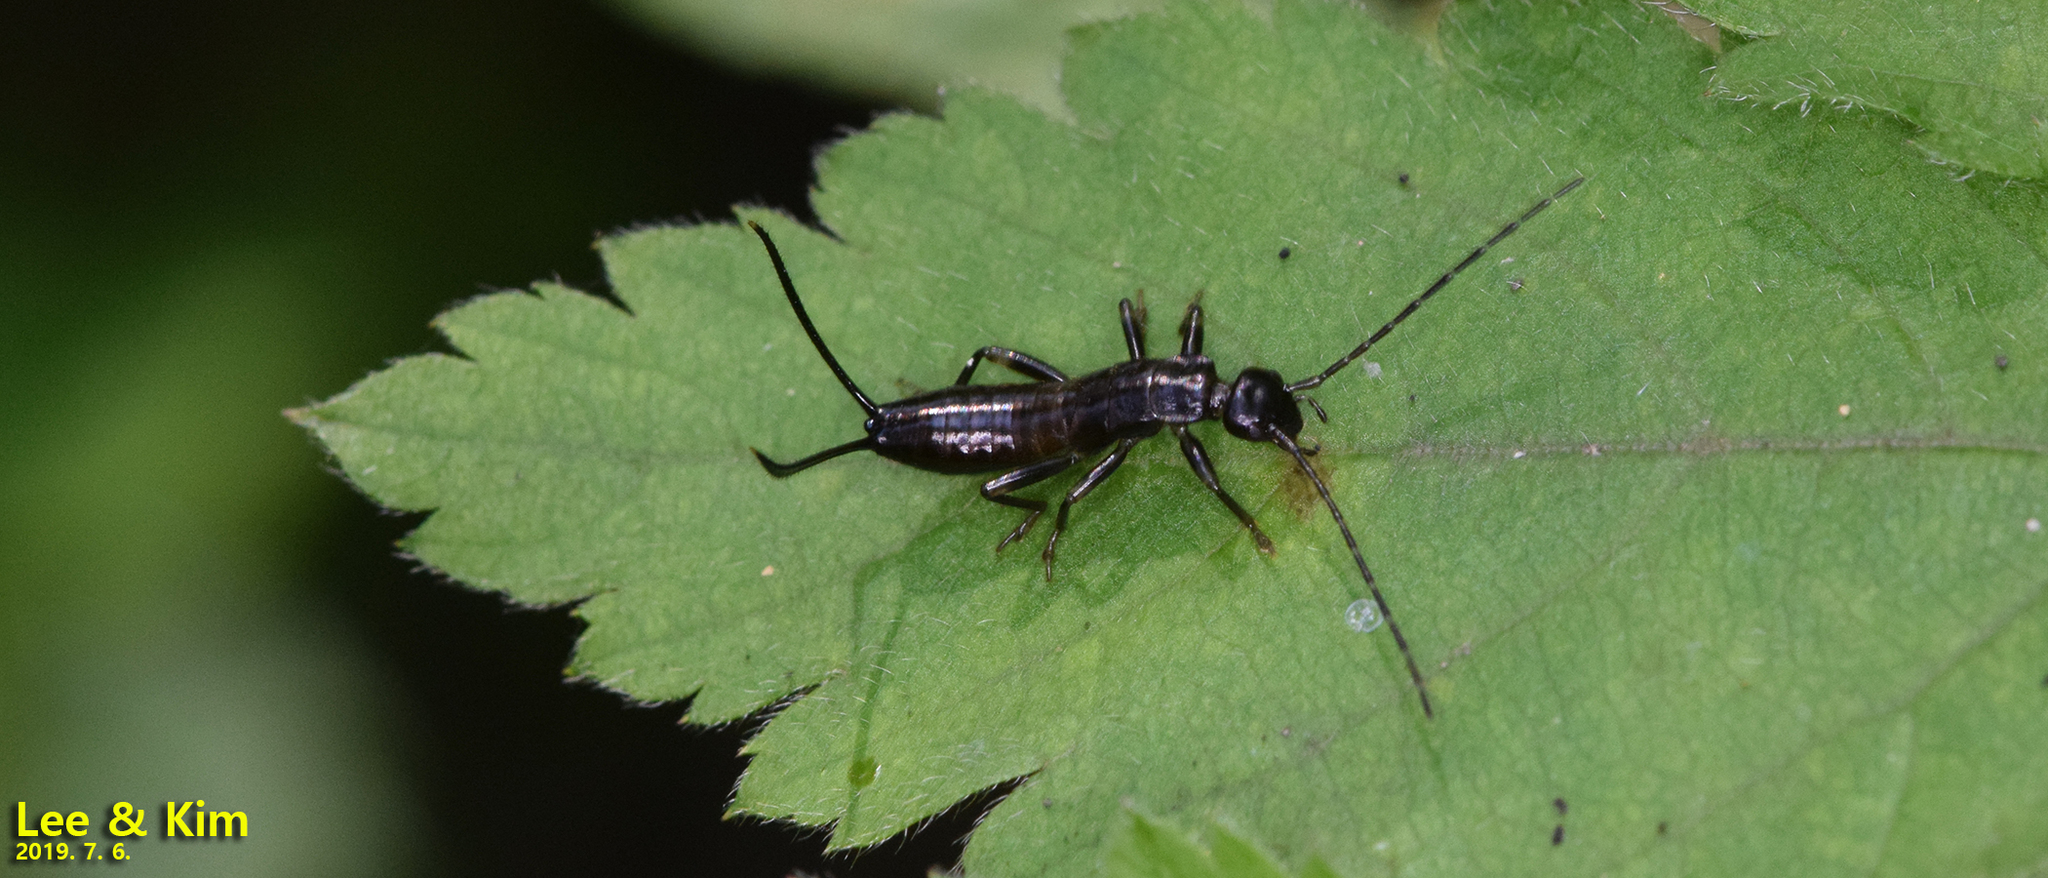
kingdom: Animalia
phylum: Arthropoda
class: Insecta
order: Dermaptera
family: Forficulidae
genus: Timomenus
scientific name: Timomenus komarovi
